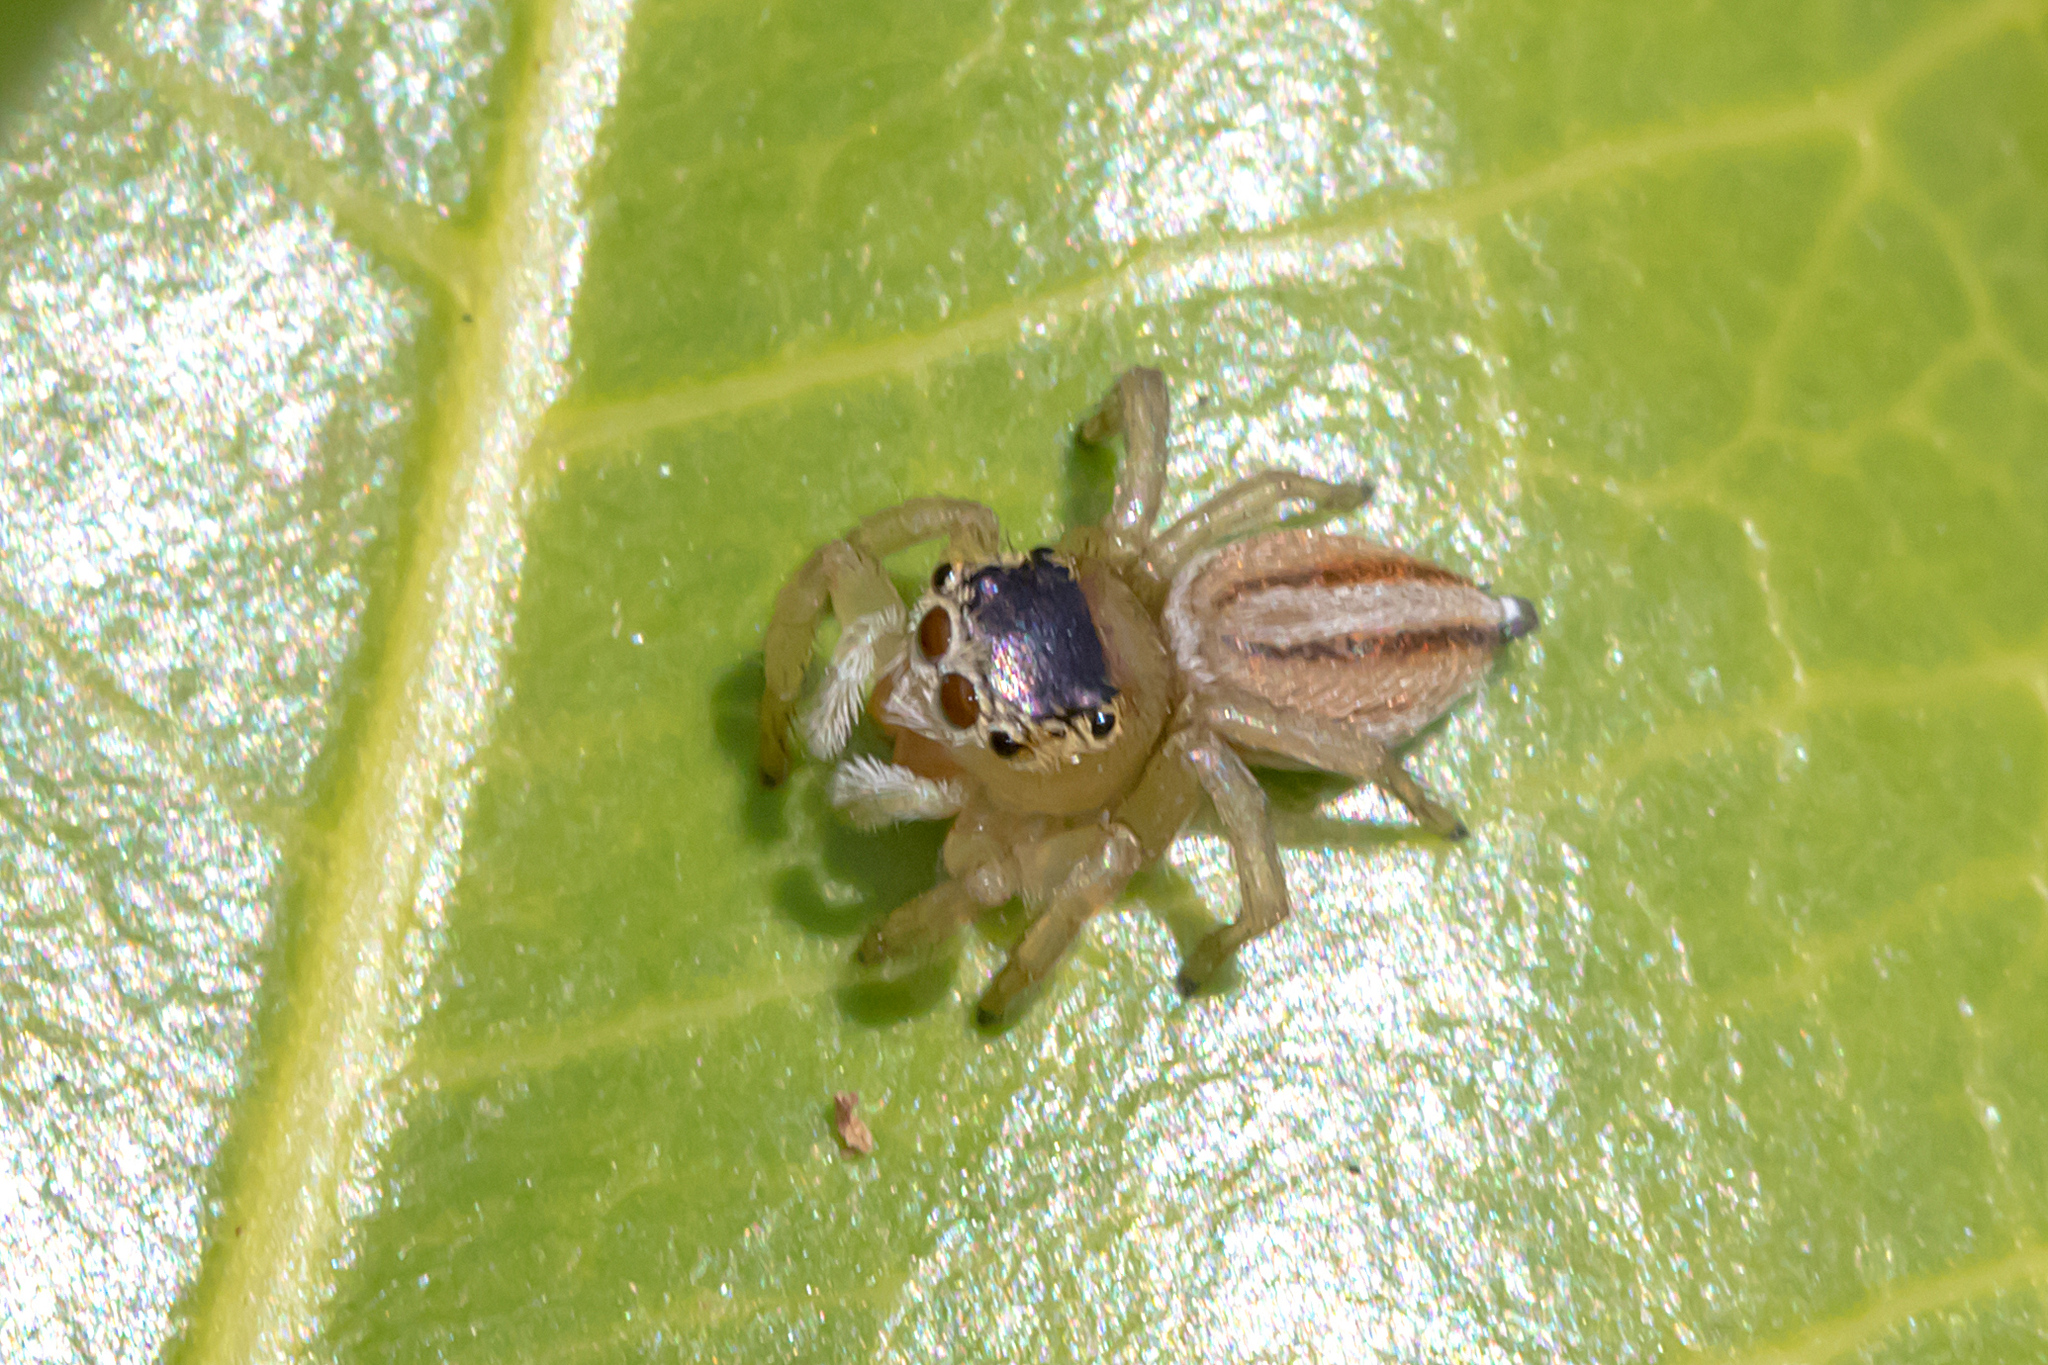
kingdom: Animalia
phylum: Arthropoda
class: Arachnida
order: Araneae
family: Salticidae
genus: Maratus
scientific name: Maratus scutulatus
